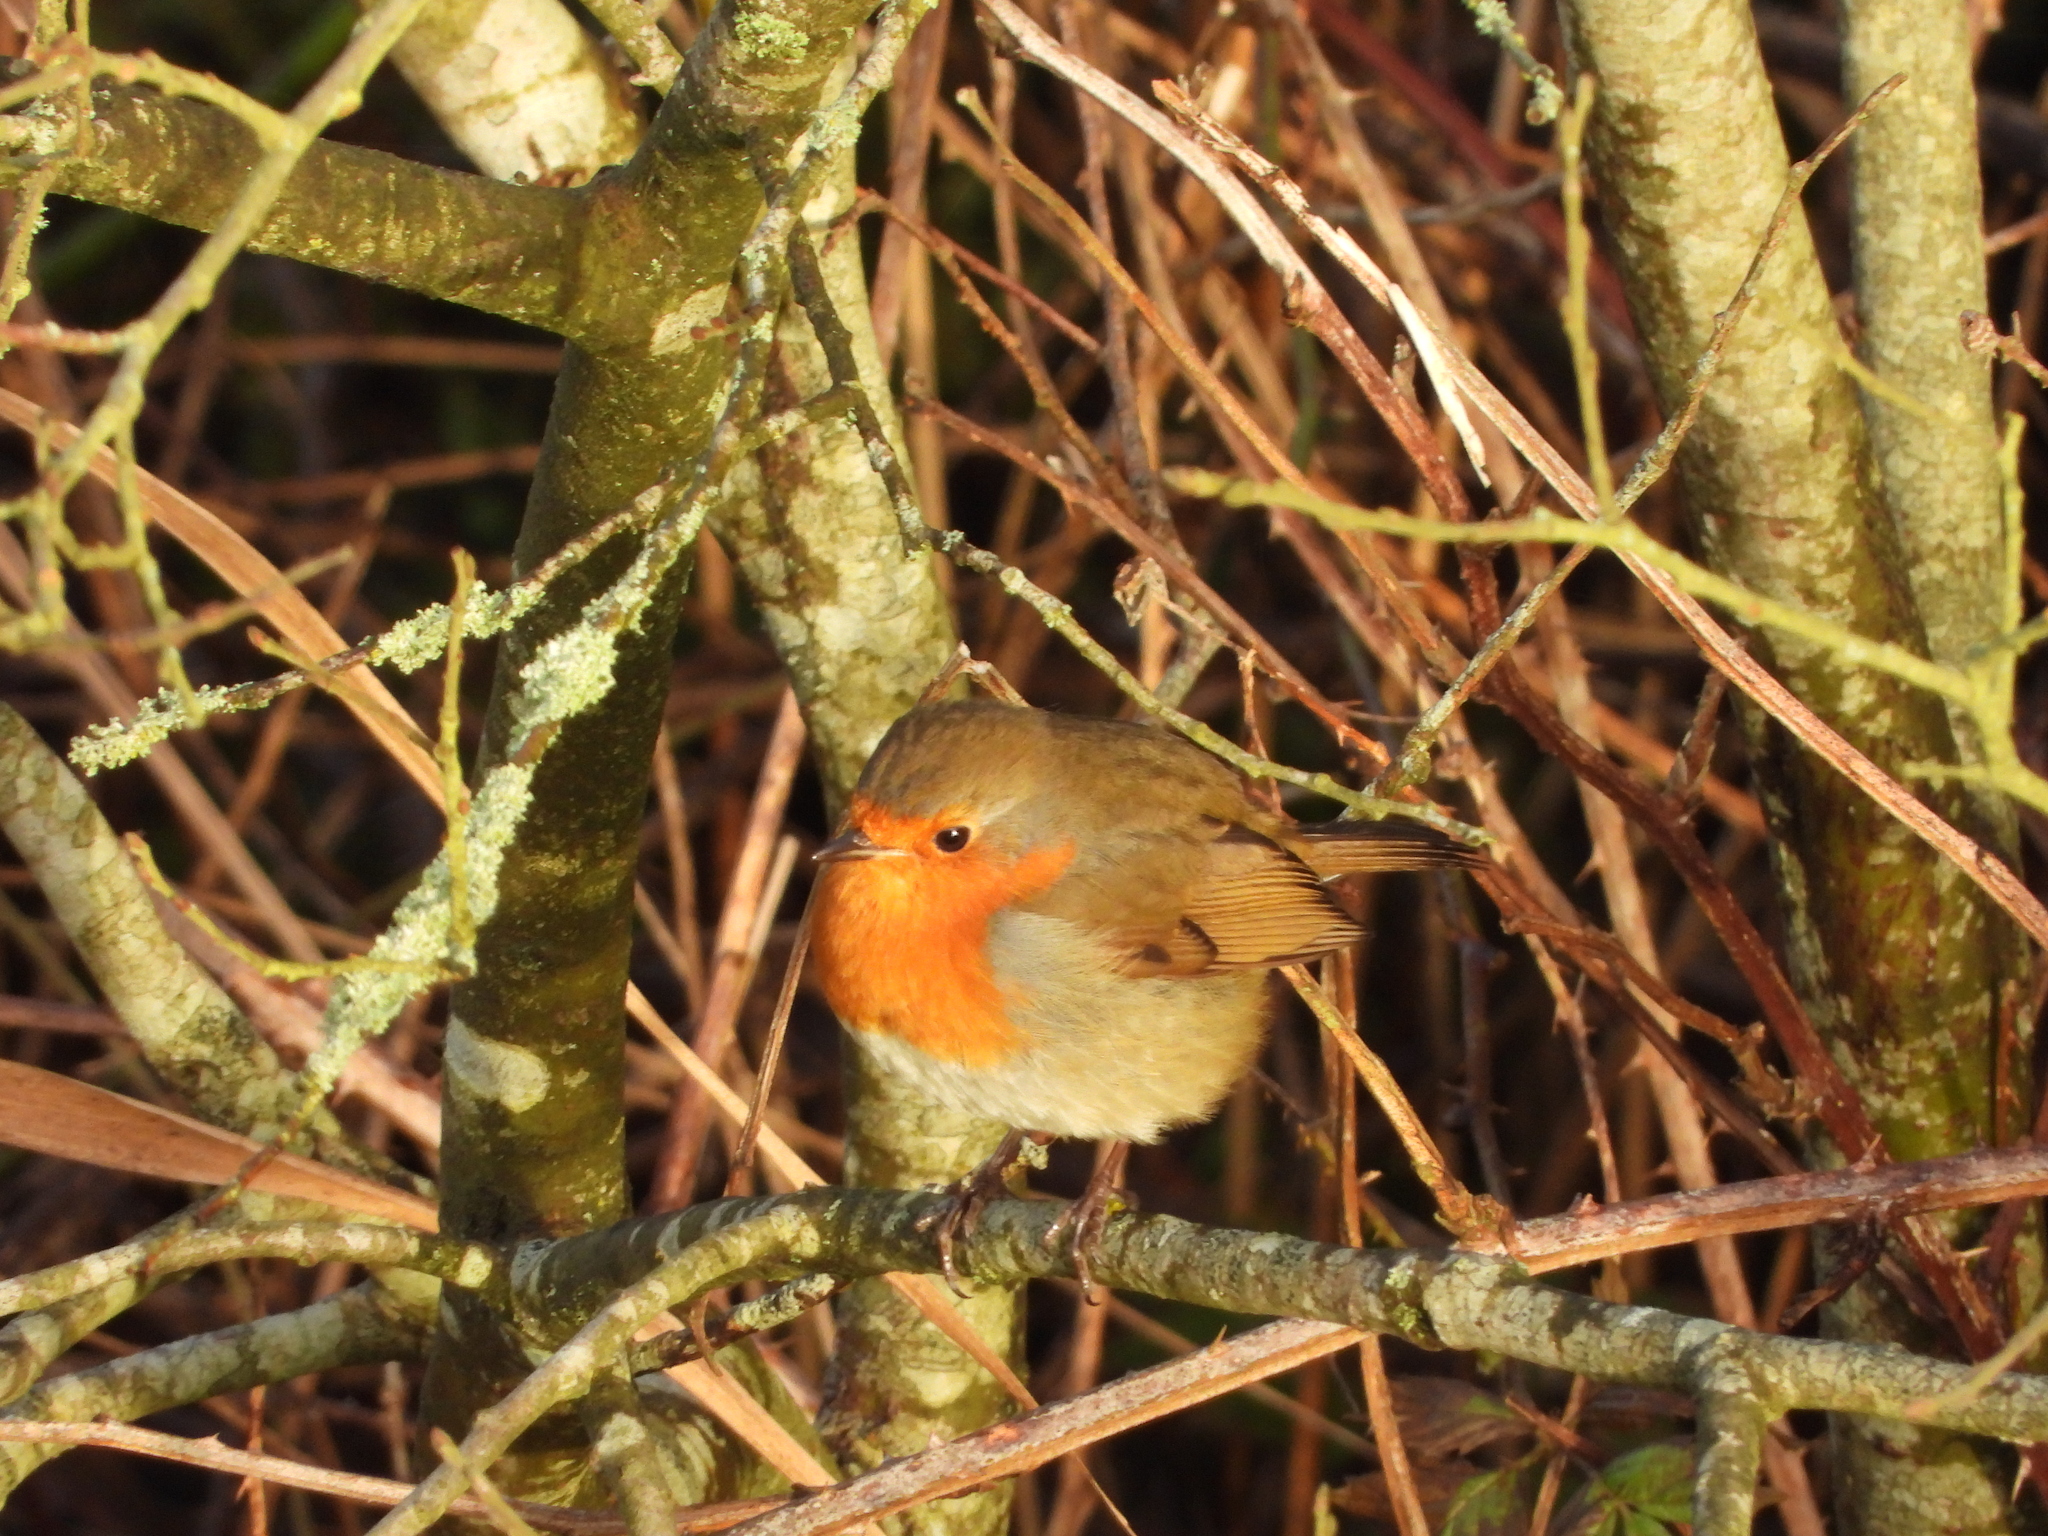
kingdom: Animalia
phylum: Chordata
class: Aves
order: Passeriformes
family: Muscicapidae
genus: Erithacus
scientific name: Erithacus rubecula
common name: European robin
